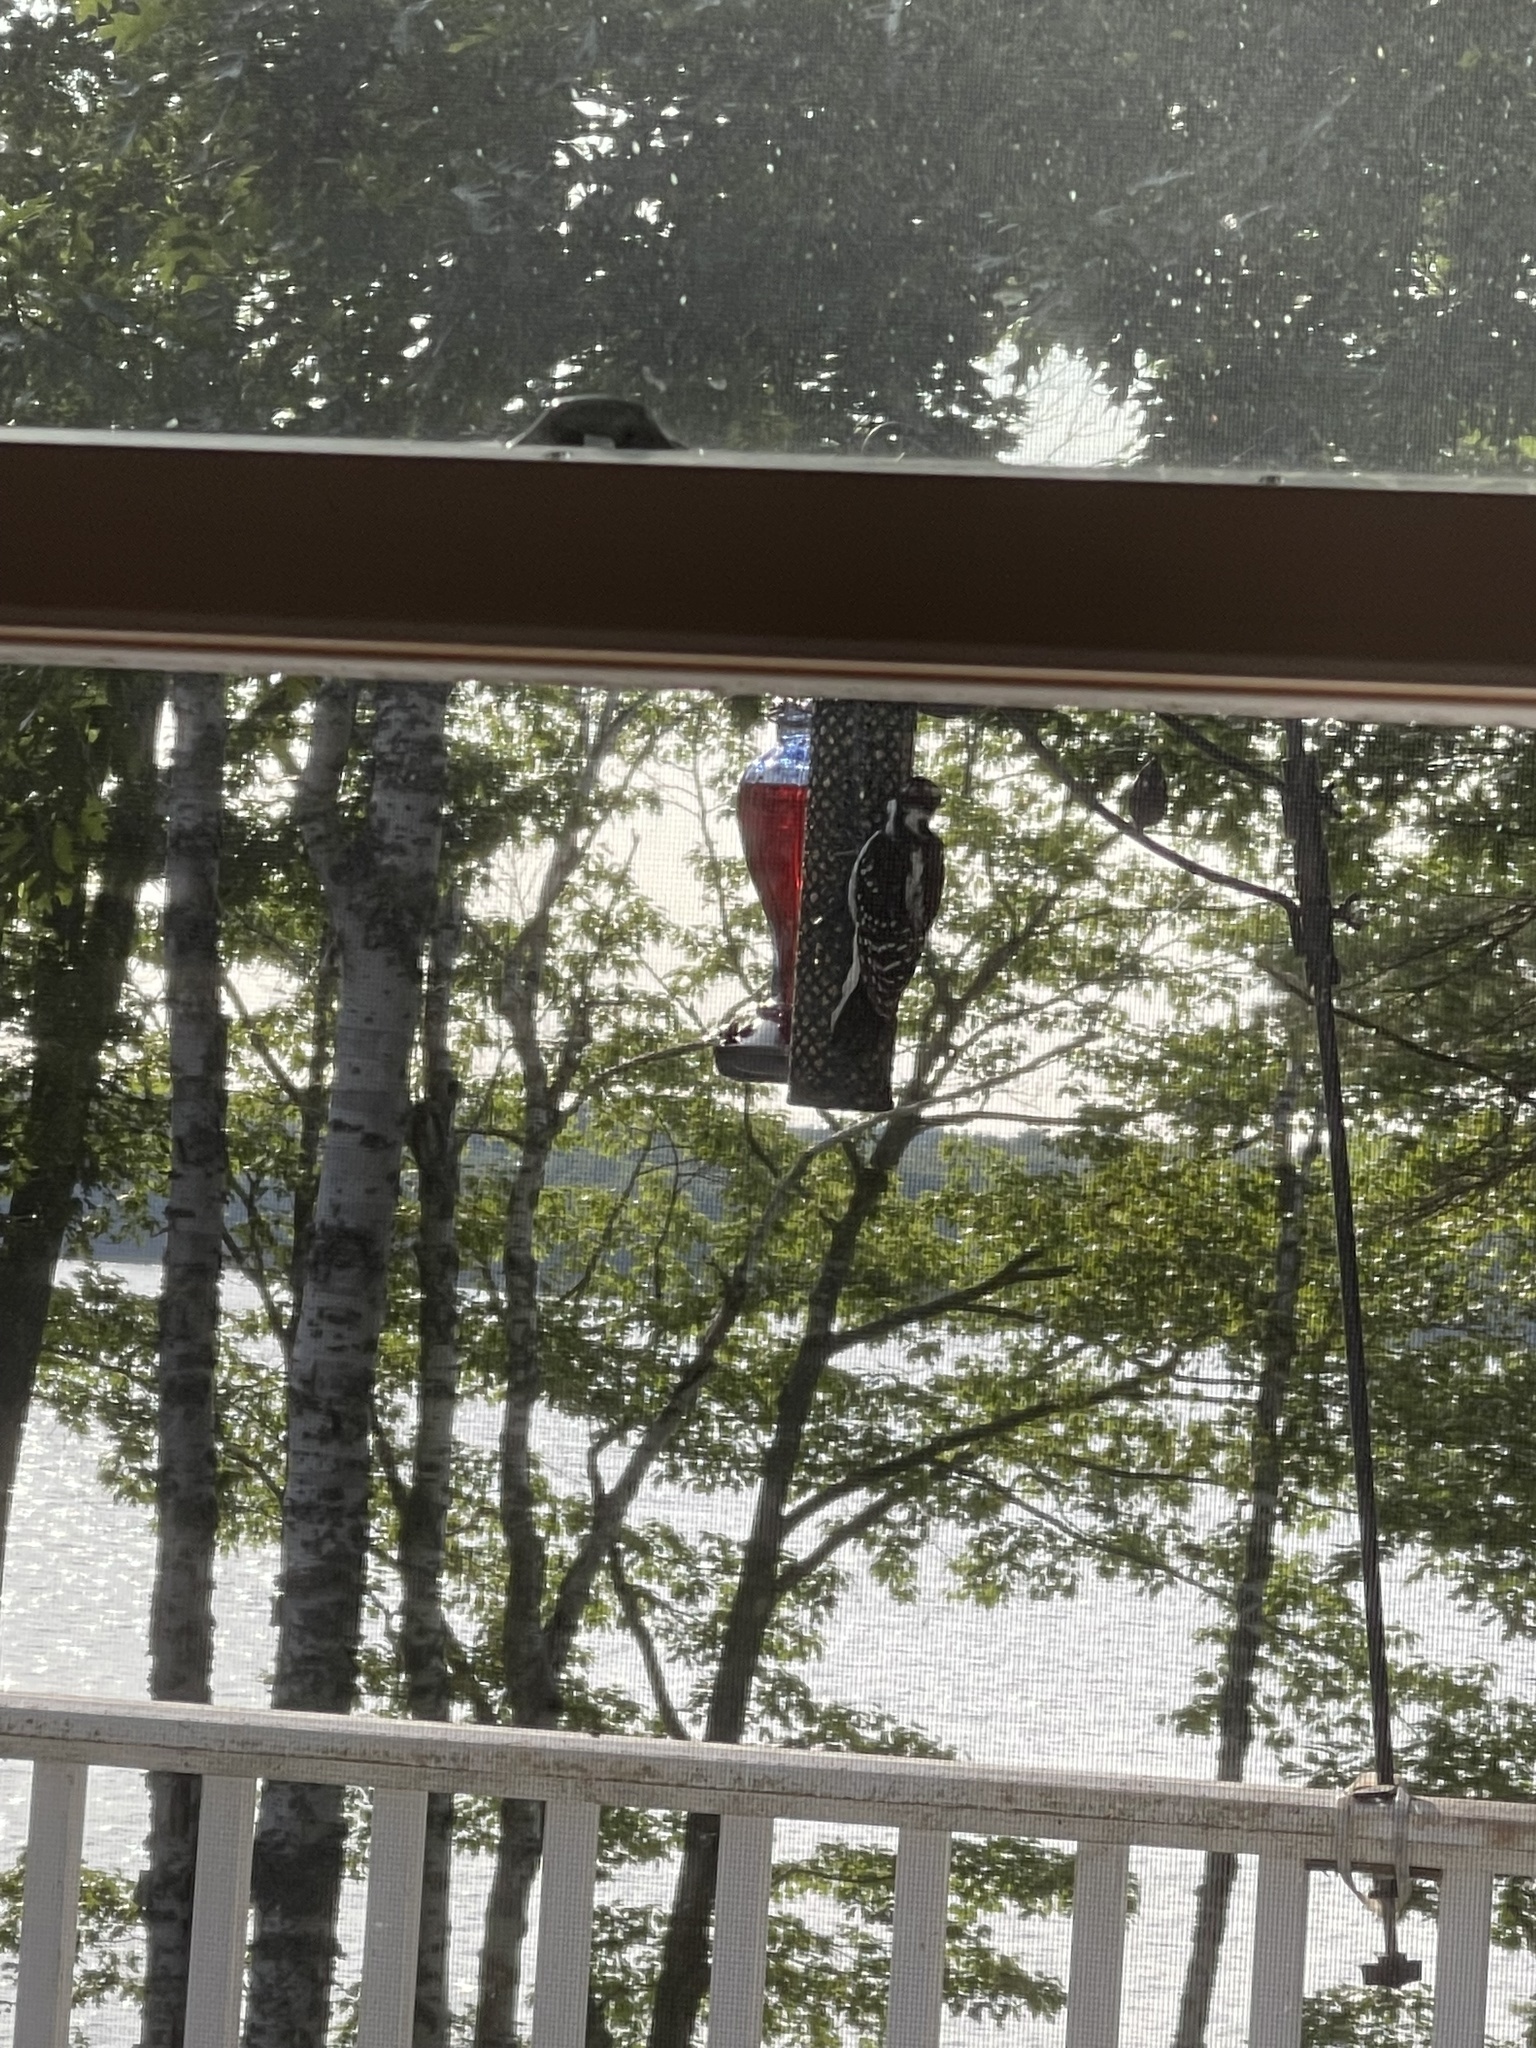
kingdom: Animalia
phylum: Chordata
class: Aves
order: Piciformes
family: Picidae
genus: Leuconotopicus
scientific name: Leuconotopicus villosus
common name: Hairy woodpecker
